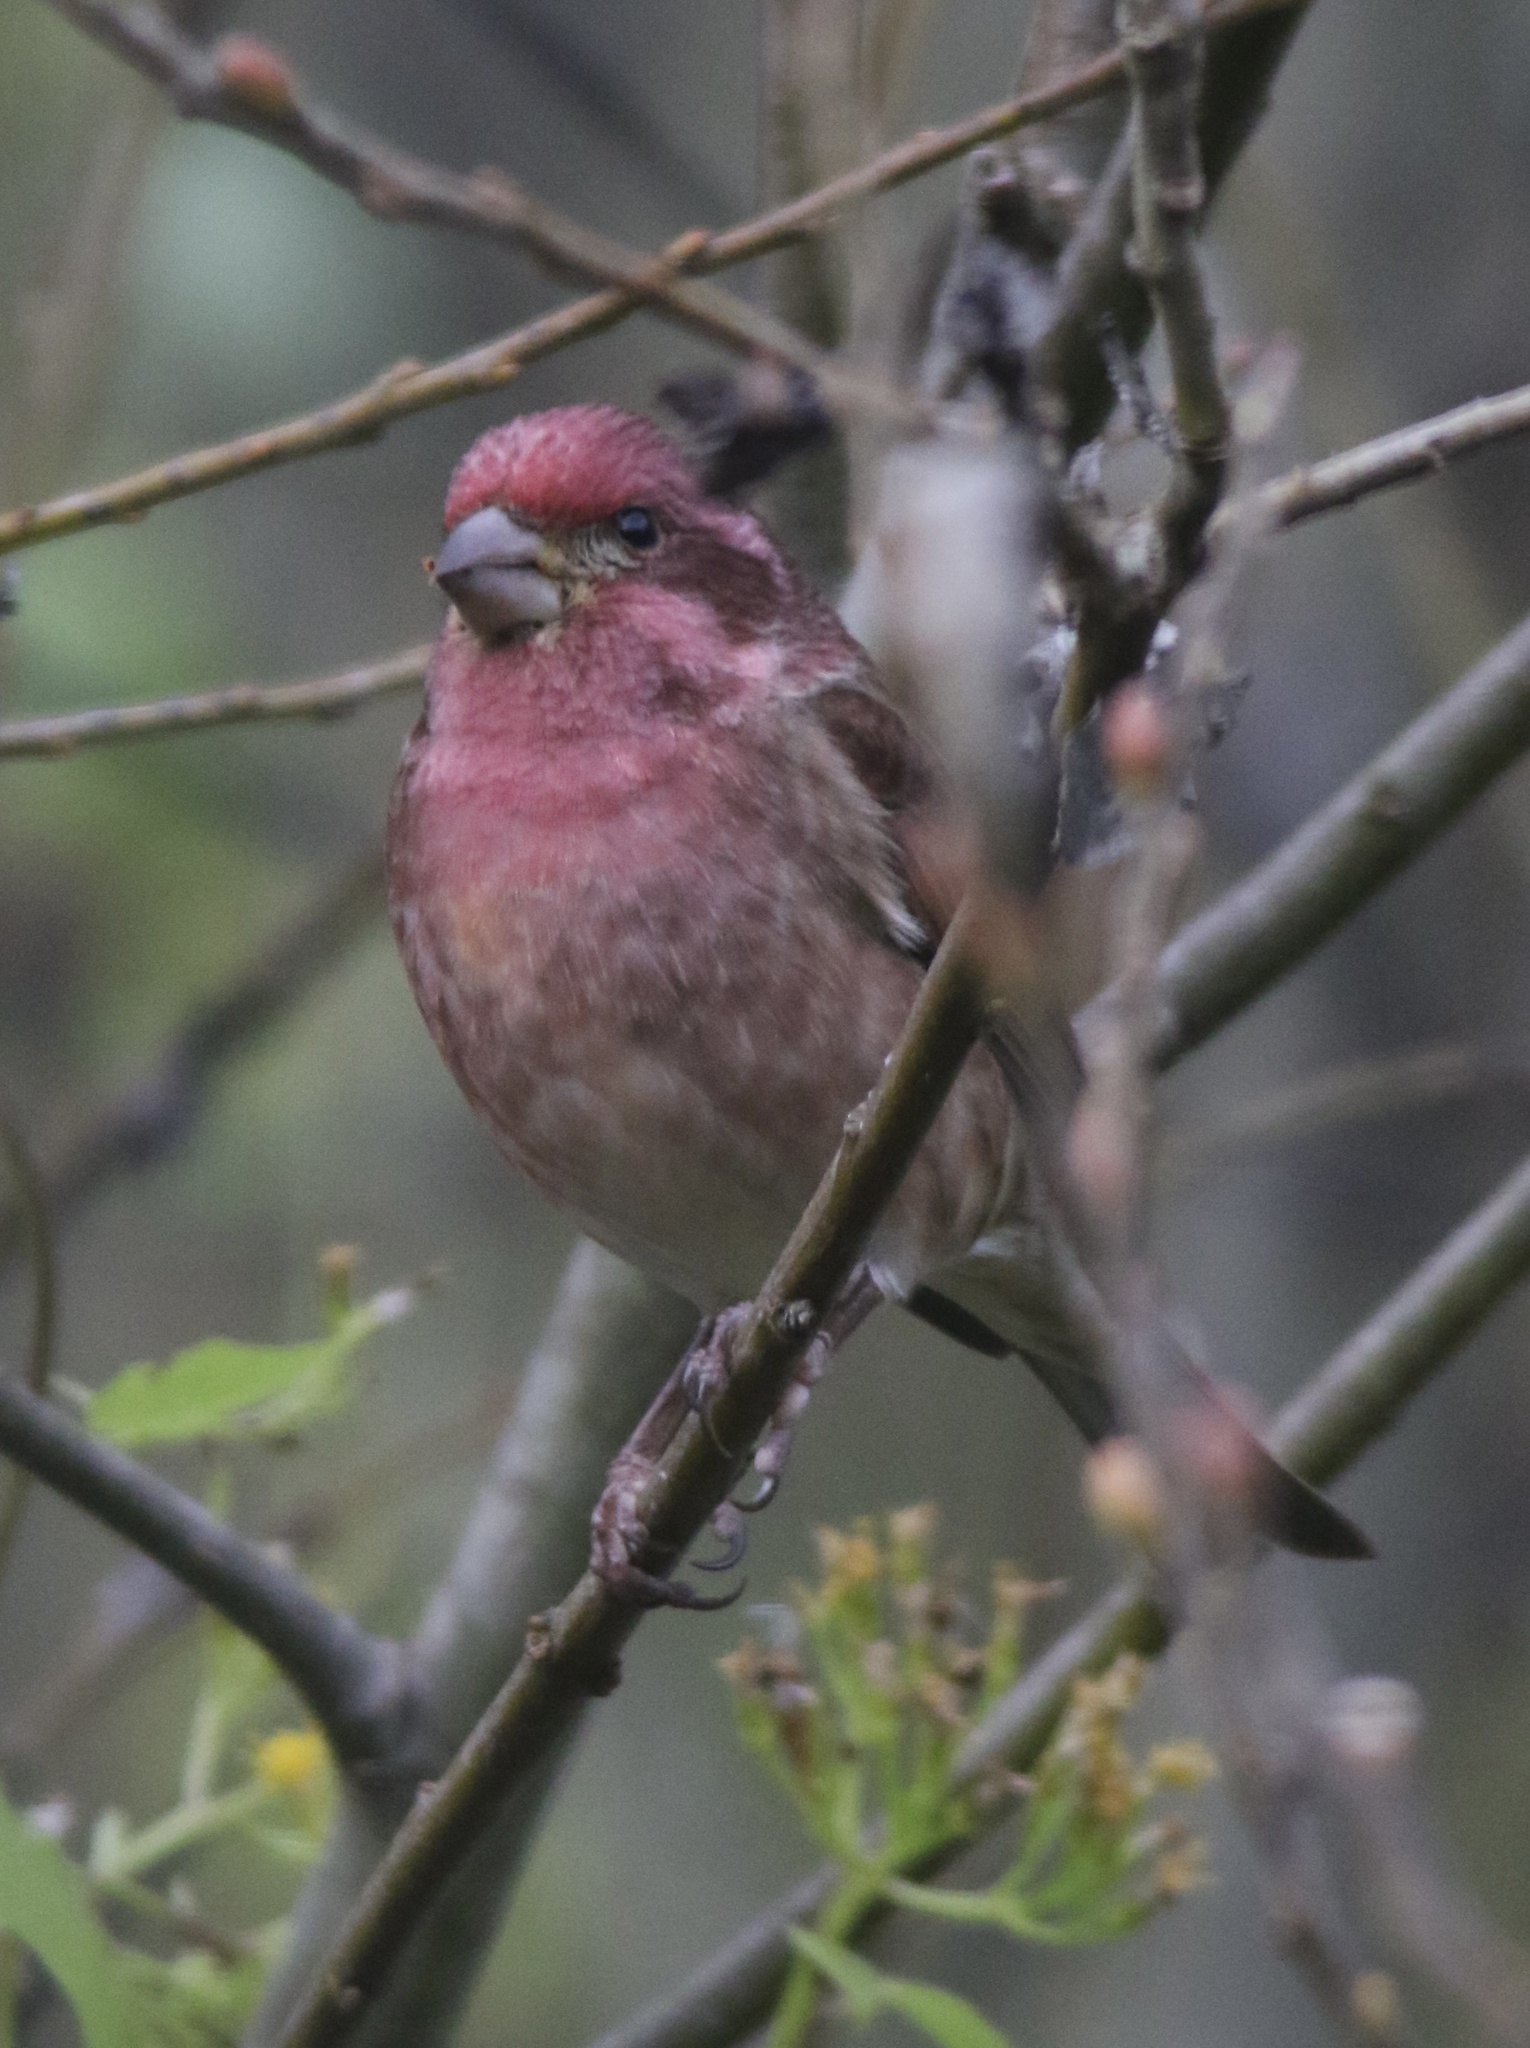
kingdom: Animalia
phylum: Chordata
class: Aves
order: Passeriformes
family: Fringillidae
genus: Haemorhous
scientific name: Haemorhous purpureus
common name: Purple finch
